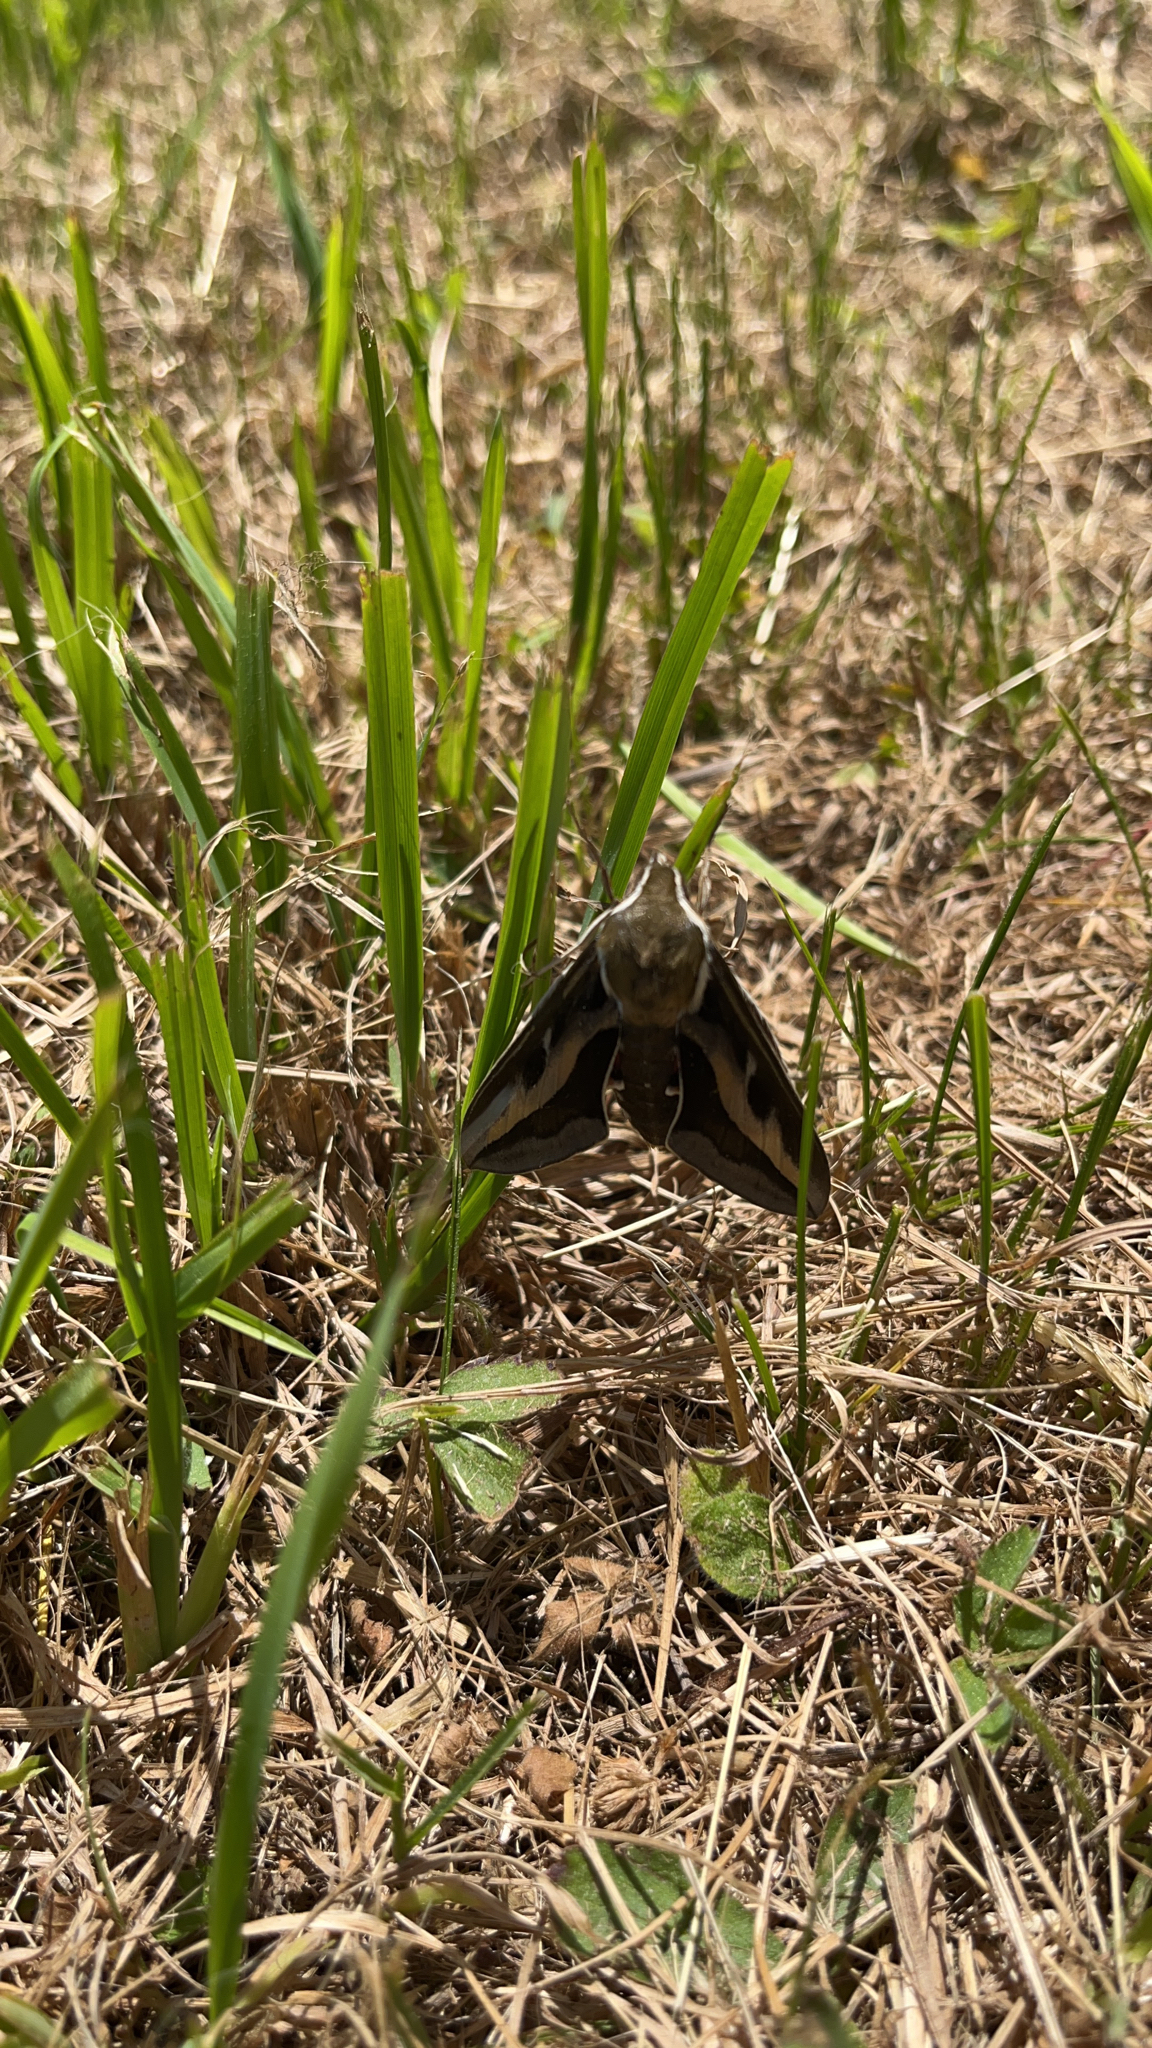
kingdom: Animalia
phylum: Arthropoda
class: Insecta
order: Lepidoptera
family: Sphingidae
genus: Hyles
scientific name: Hyles gallii
